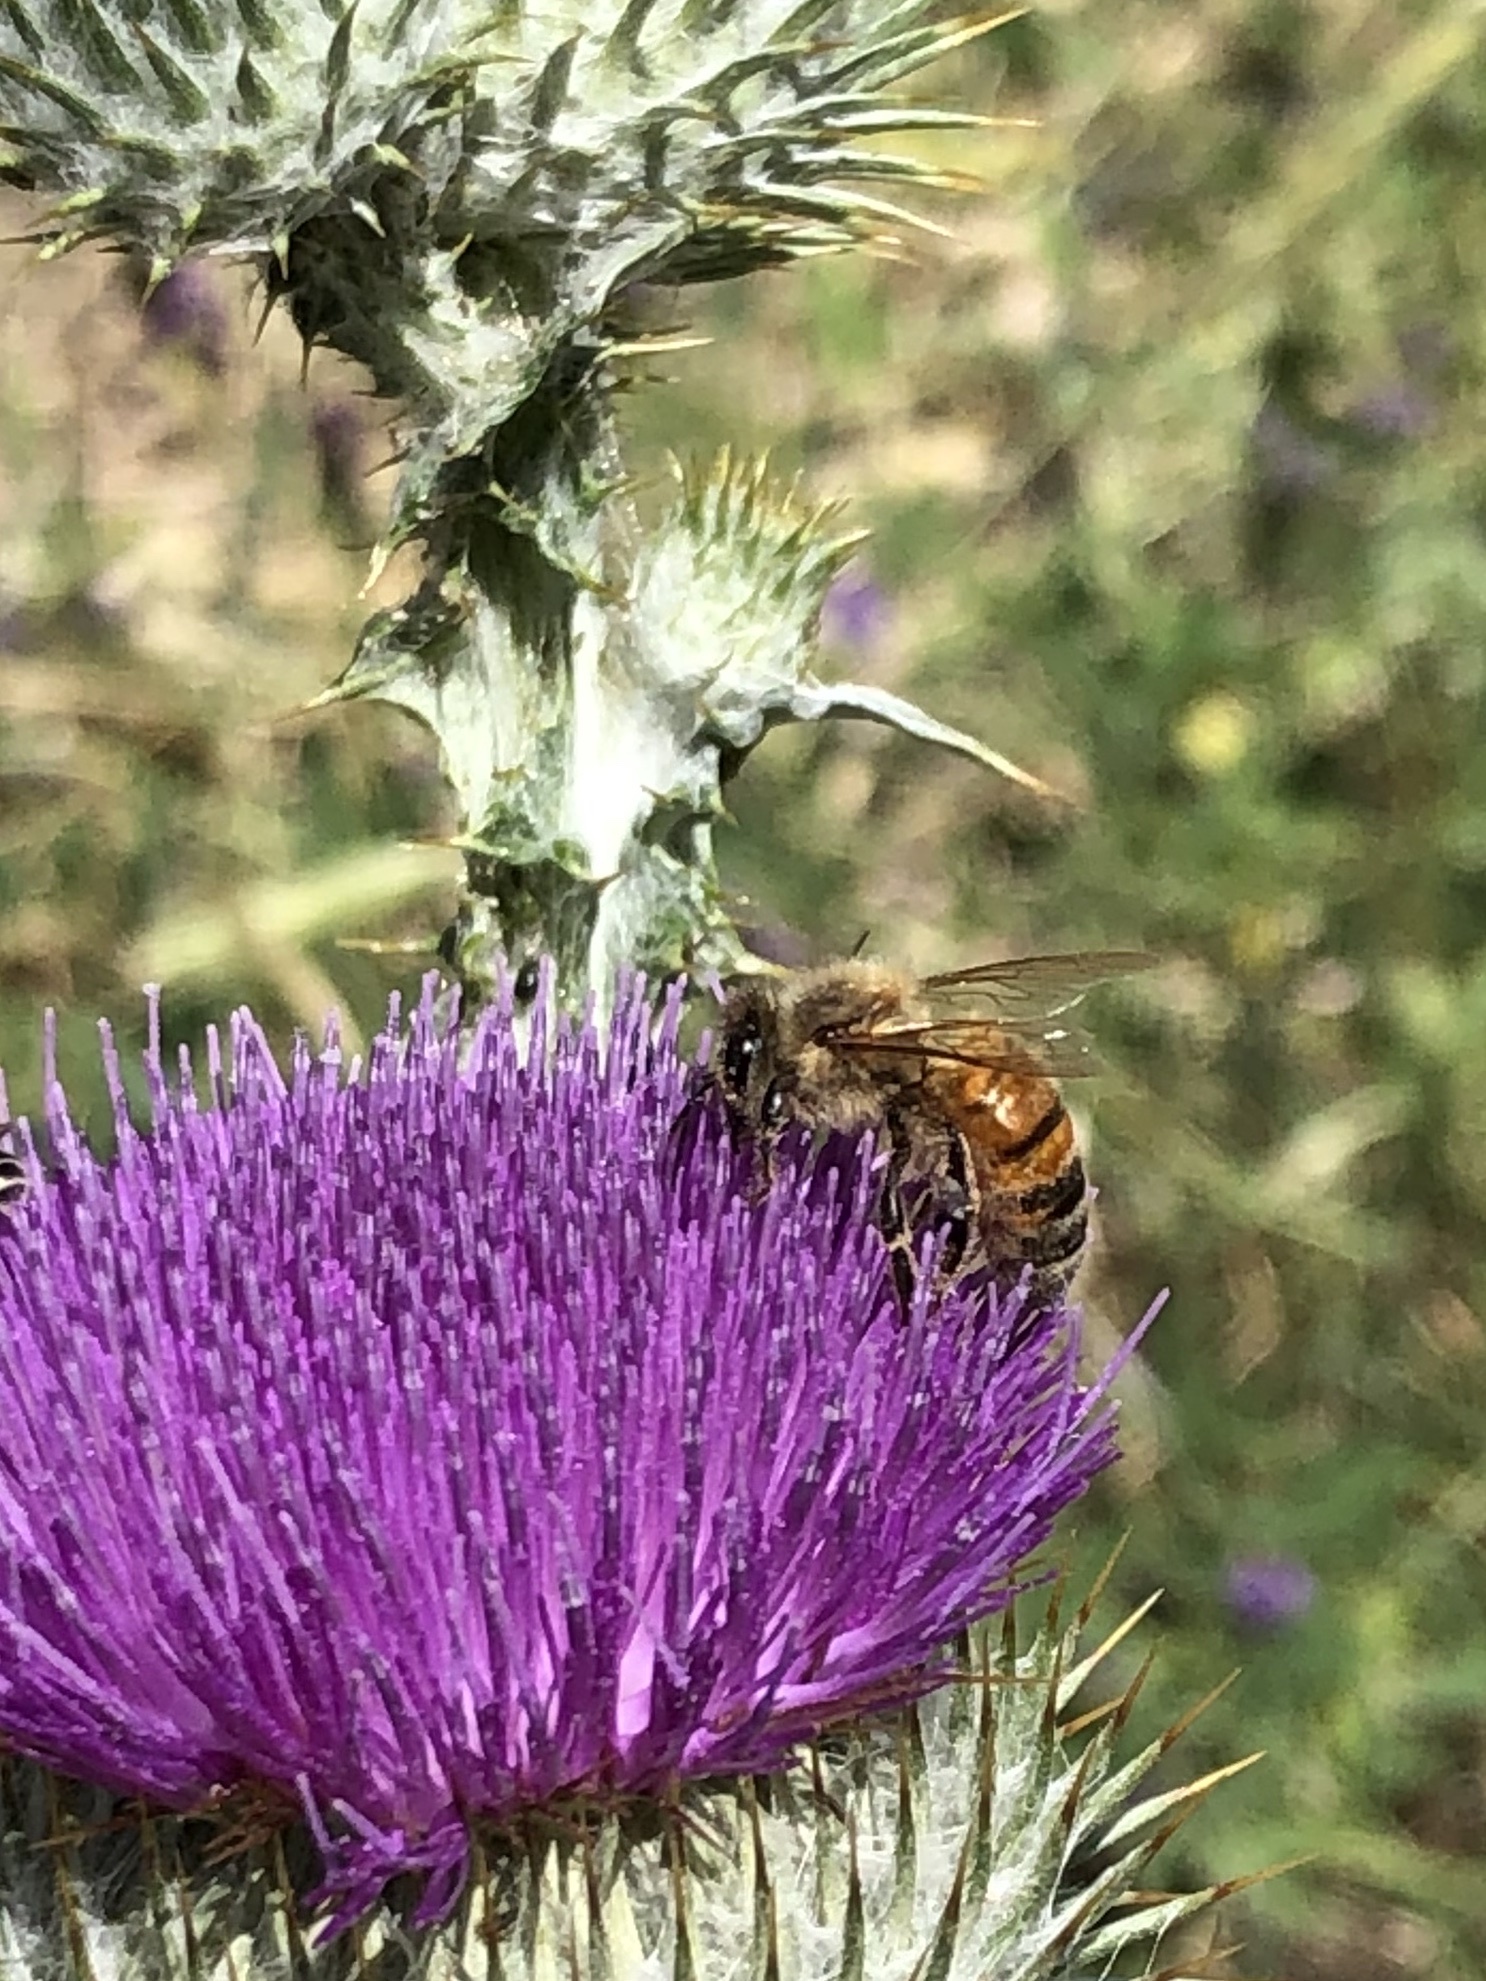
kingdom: Animalia
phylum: Arthropoda
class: Insecta
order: Hymenoptera
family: Apidae
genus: Apis
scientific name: Apis mellifera
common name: Honey bee
